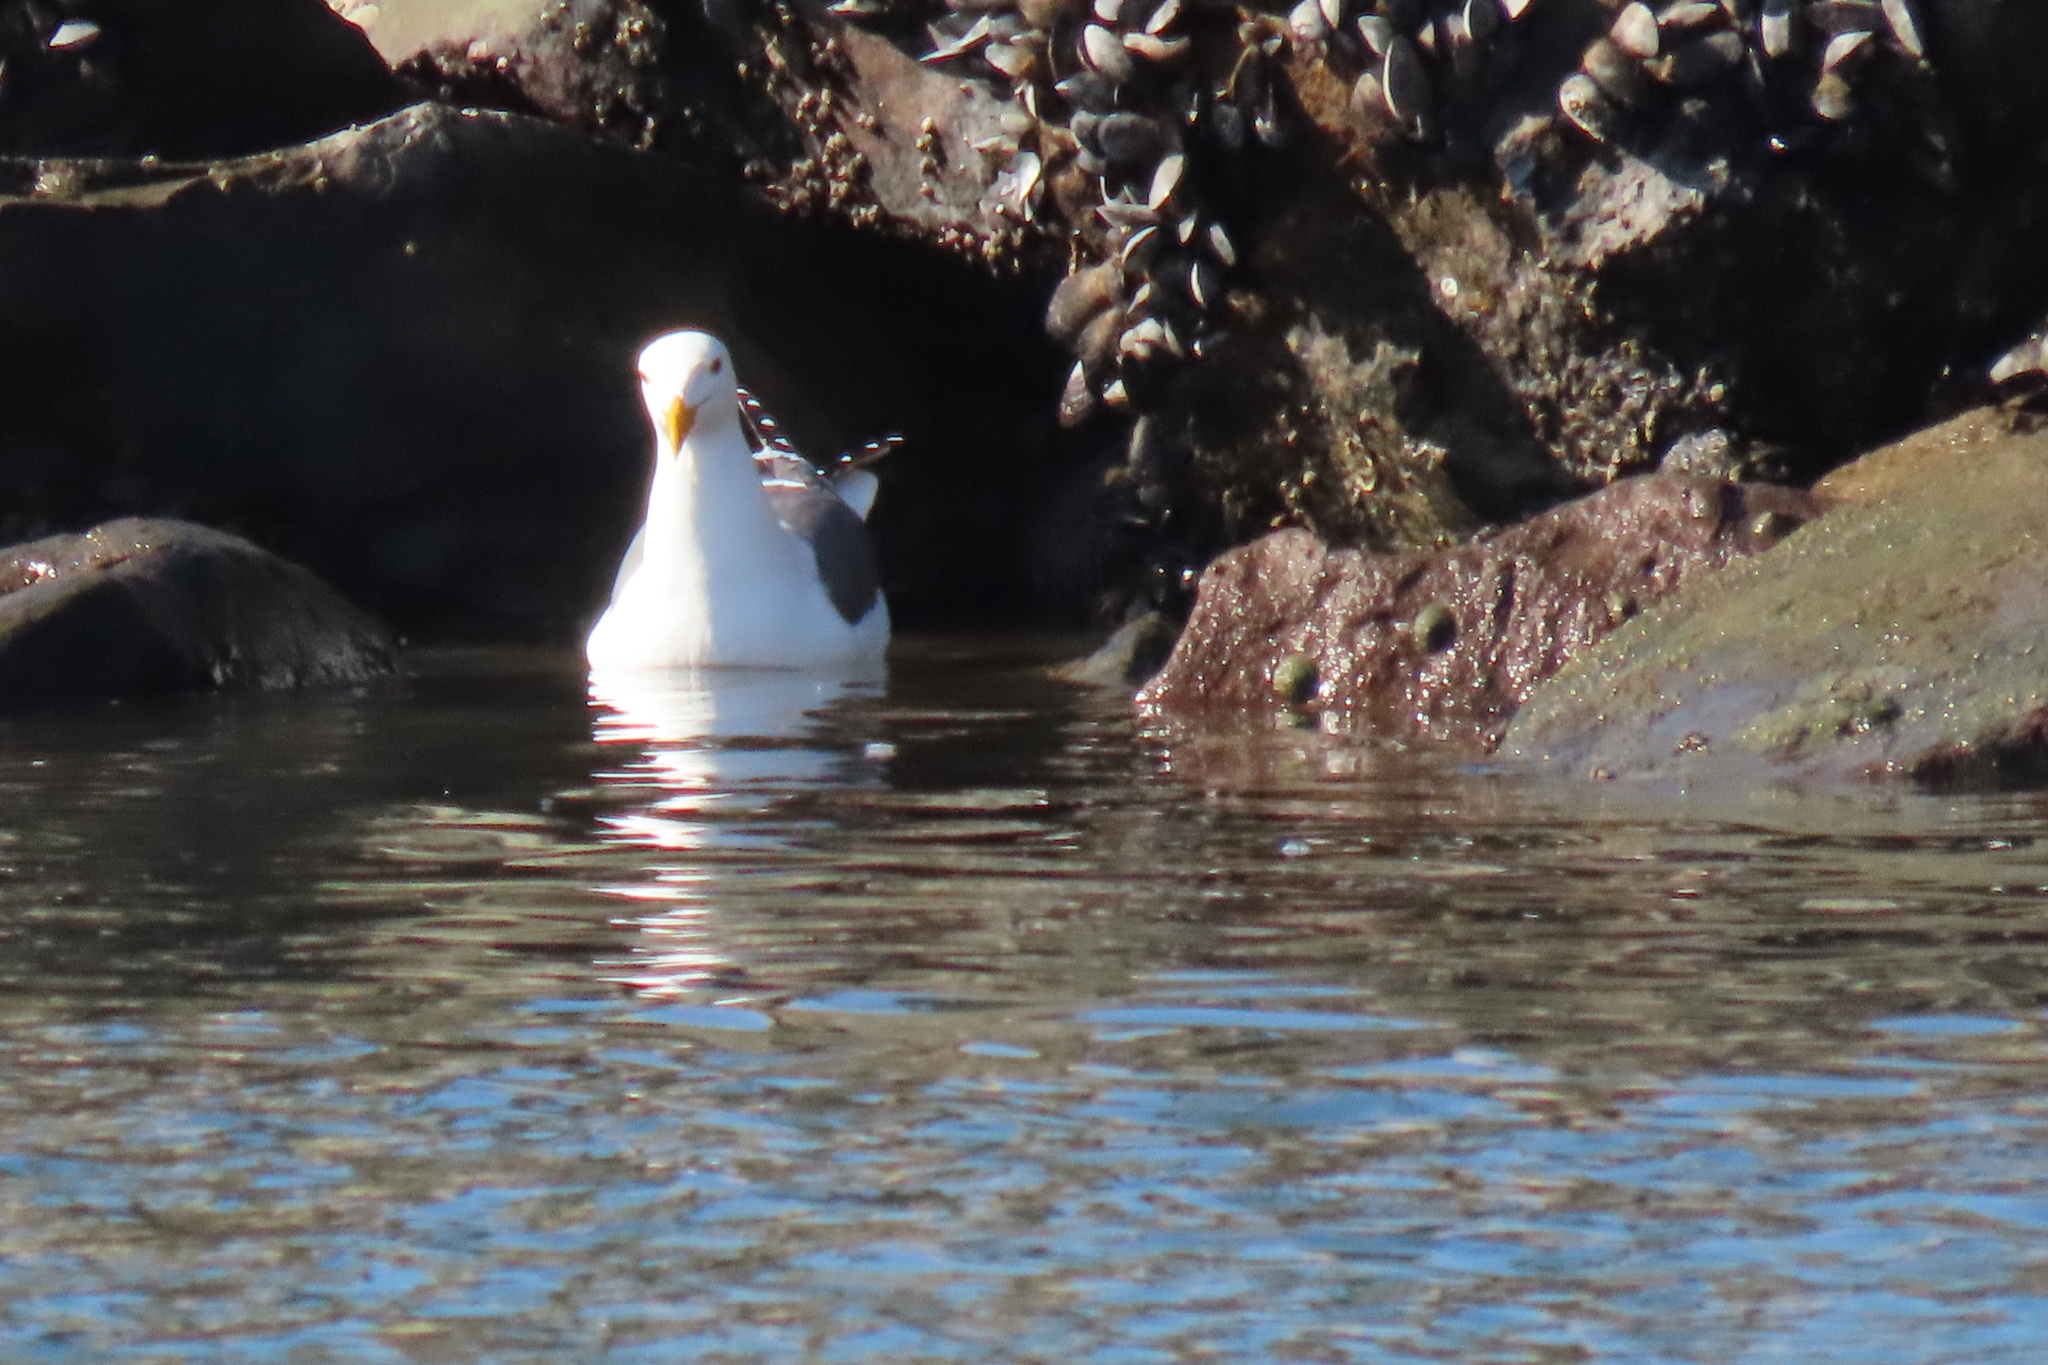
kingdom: Animalia
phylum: Chordata
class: Aves
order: Charadriiformes
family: Laridae
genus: Larus
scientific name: Larus occidentalis
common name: Western gull
